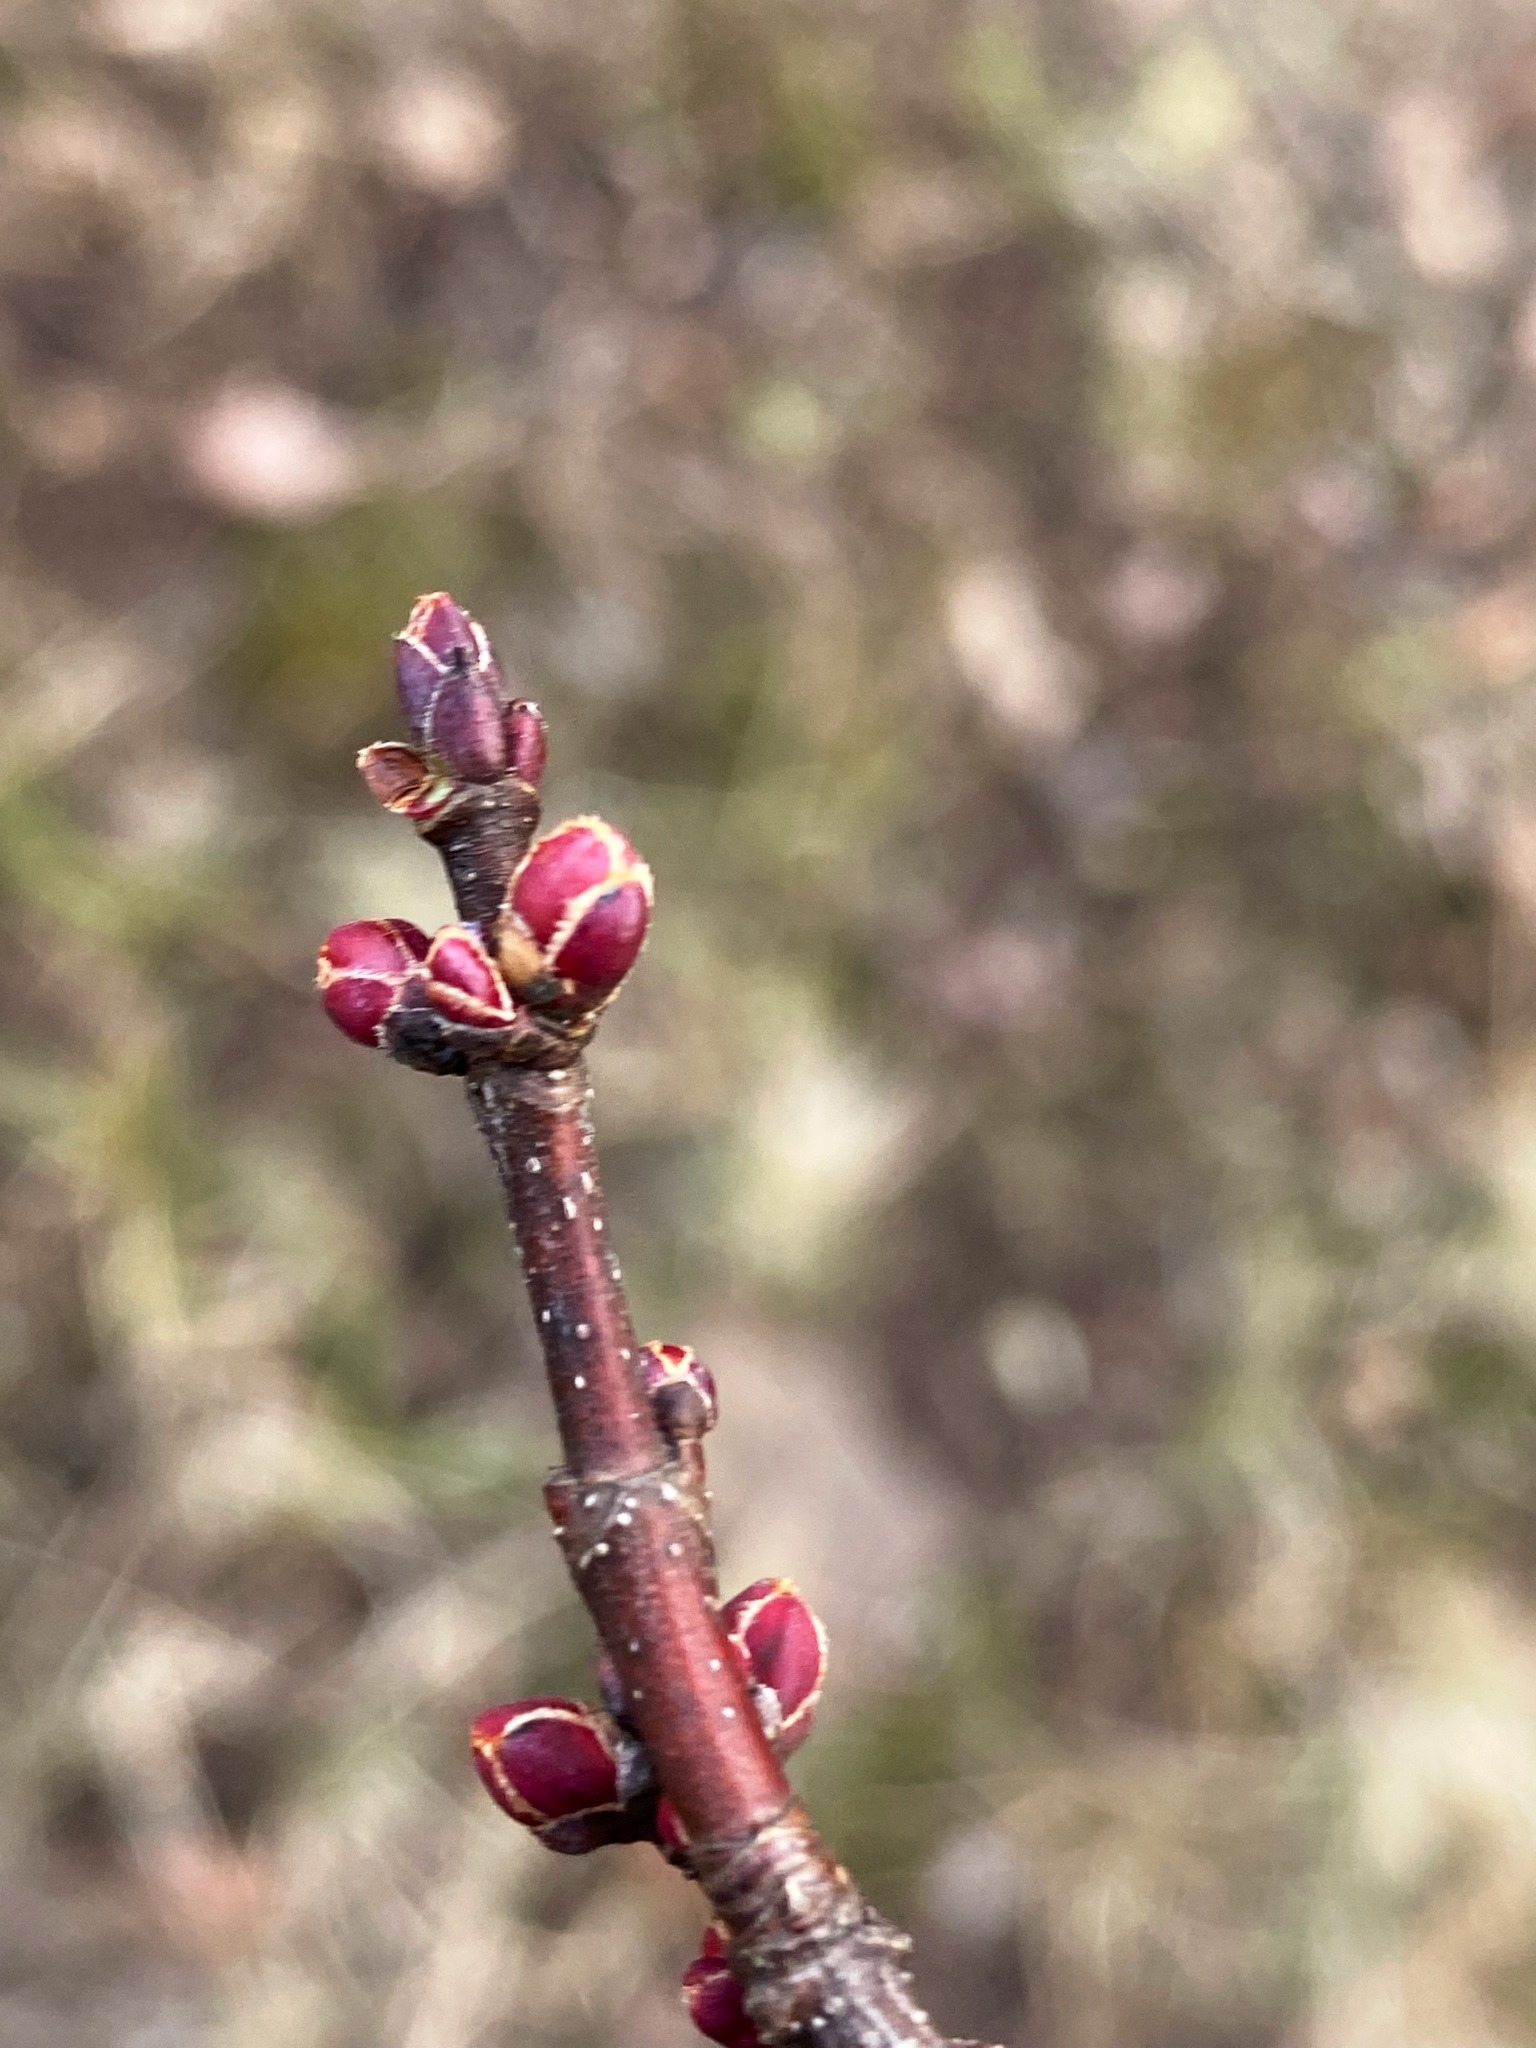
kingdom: Plantae
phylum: Tracheophyta
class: Magnoliopsida
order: Sapindales
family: Sapindaceae
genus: Acer
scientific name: Acer rubrum
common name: Red maple
